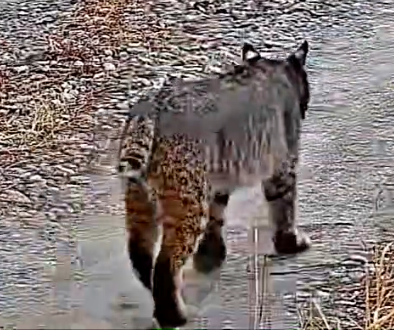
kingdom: Animalia
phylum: Chordata
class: Mammalia
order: Carnivora
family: Felidae
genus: Lynx
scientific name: Lynx rufus
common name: Bobcat
